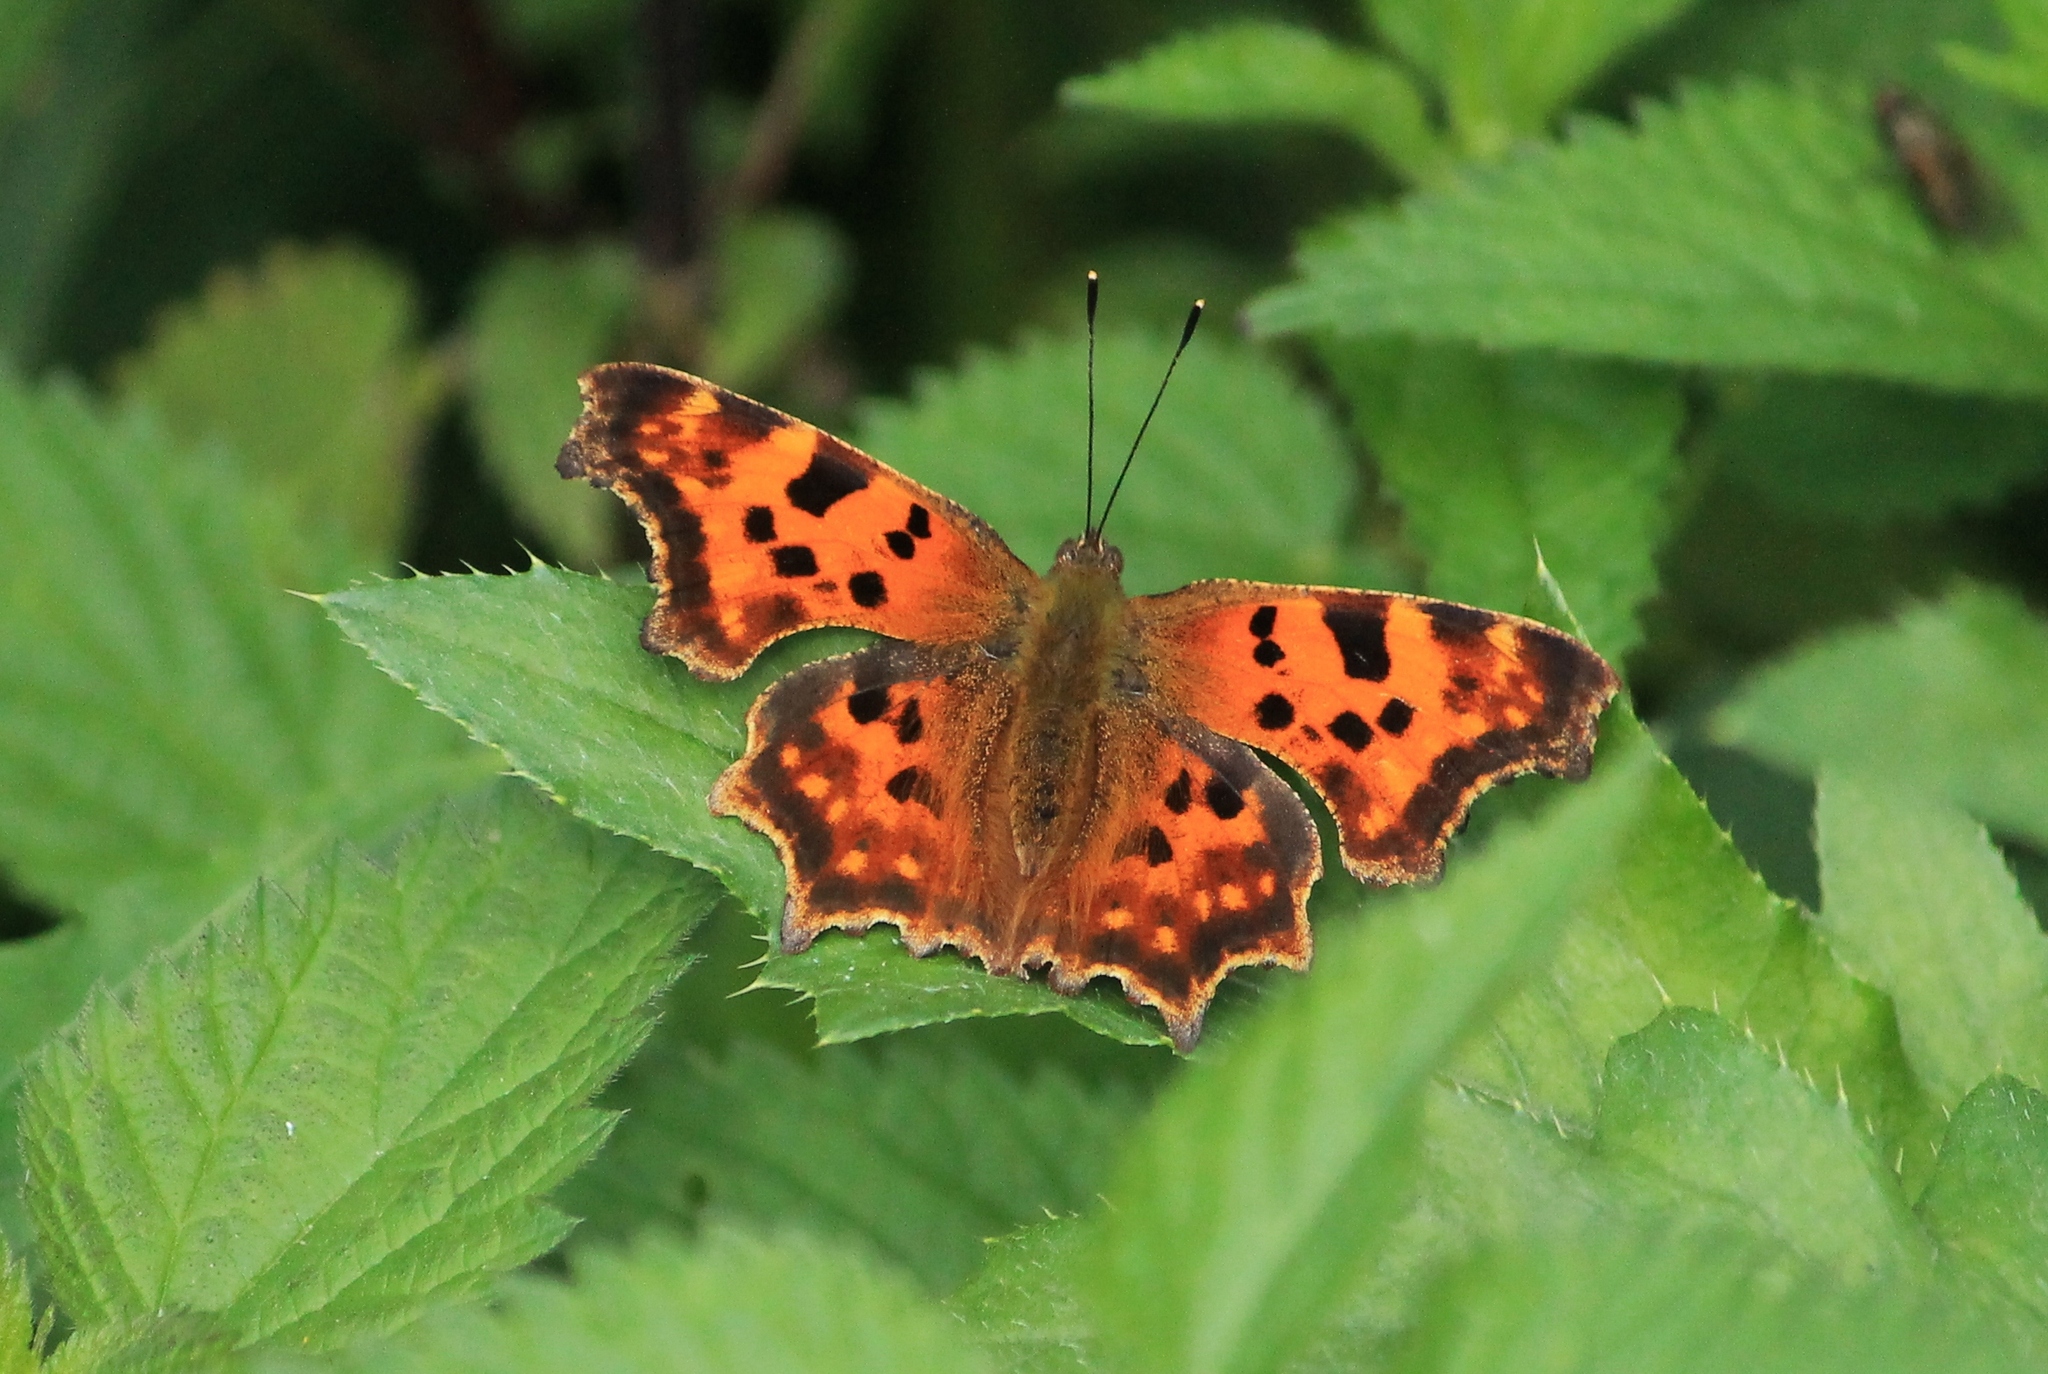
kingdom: Animalia
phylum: Arthropoda
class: Insecta
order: Lepidoptera
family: Nymphalidae
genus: Polygonia
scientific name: Polygonia c-album
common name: Comma
